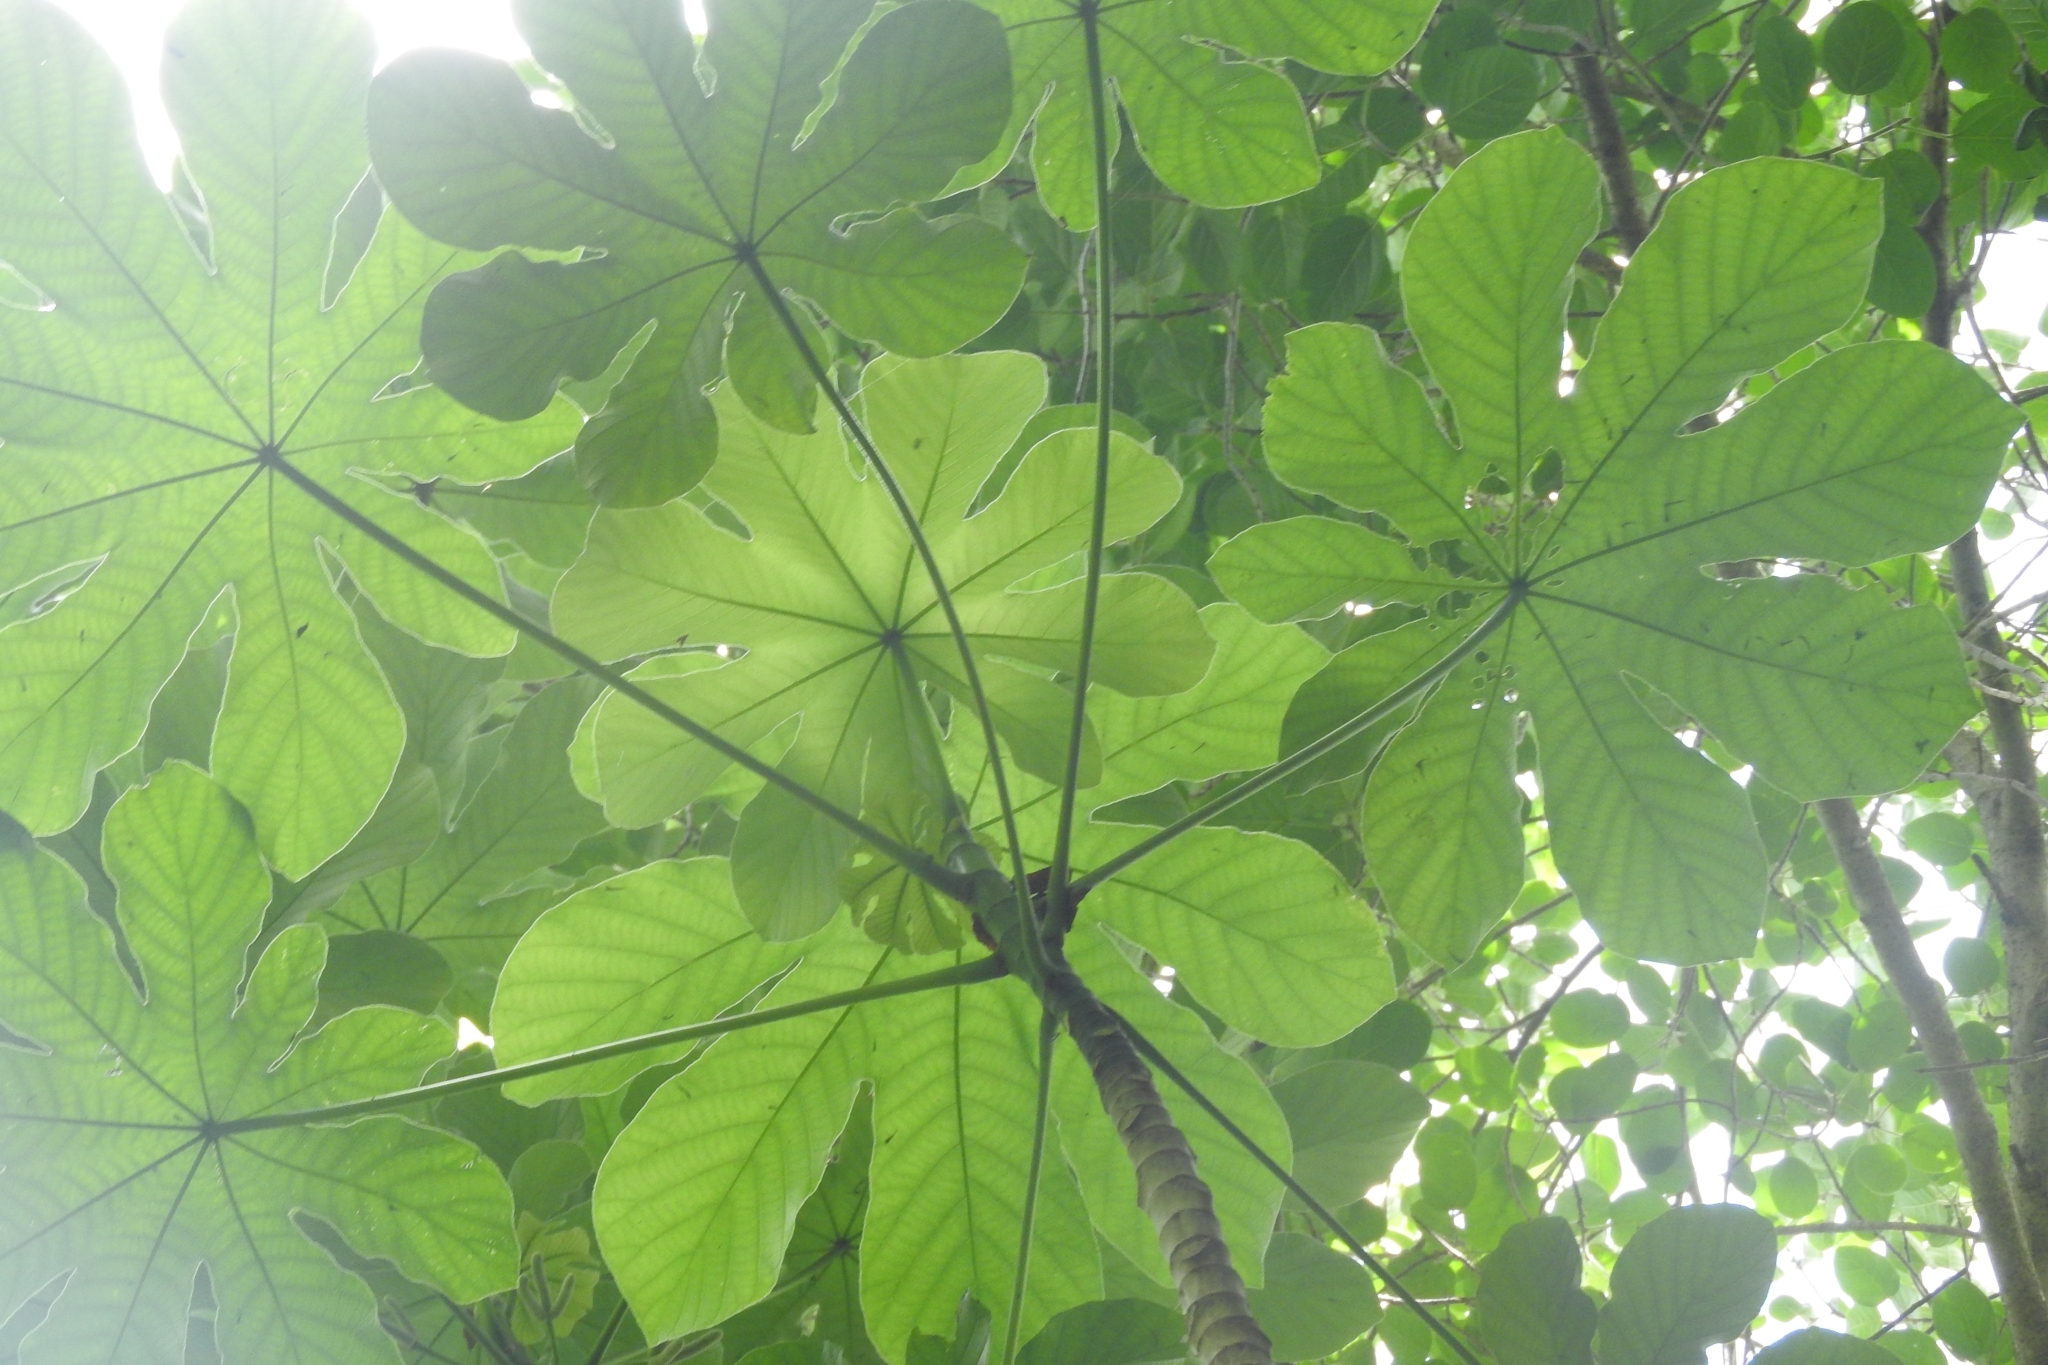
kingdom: Plantae
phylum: Tracheophyta
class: Magnoliopsida
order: Rosales
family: Urticaceae
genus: Cecropia
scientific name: Cecropia peltata
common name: Trumpet-tree
